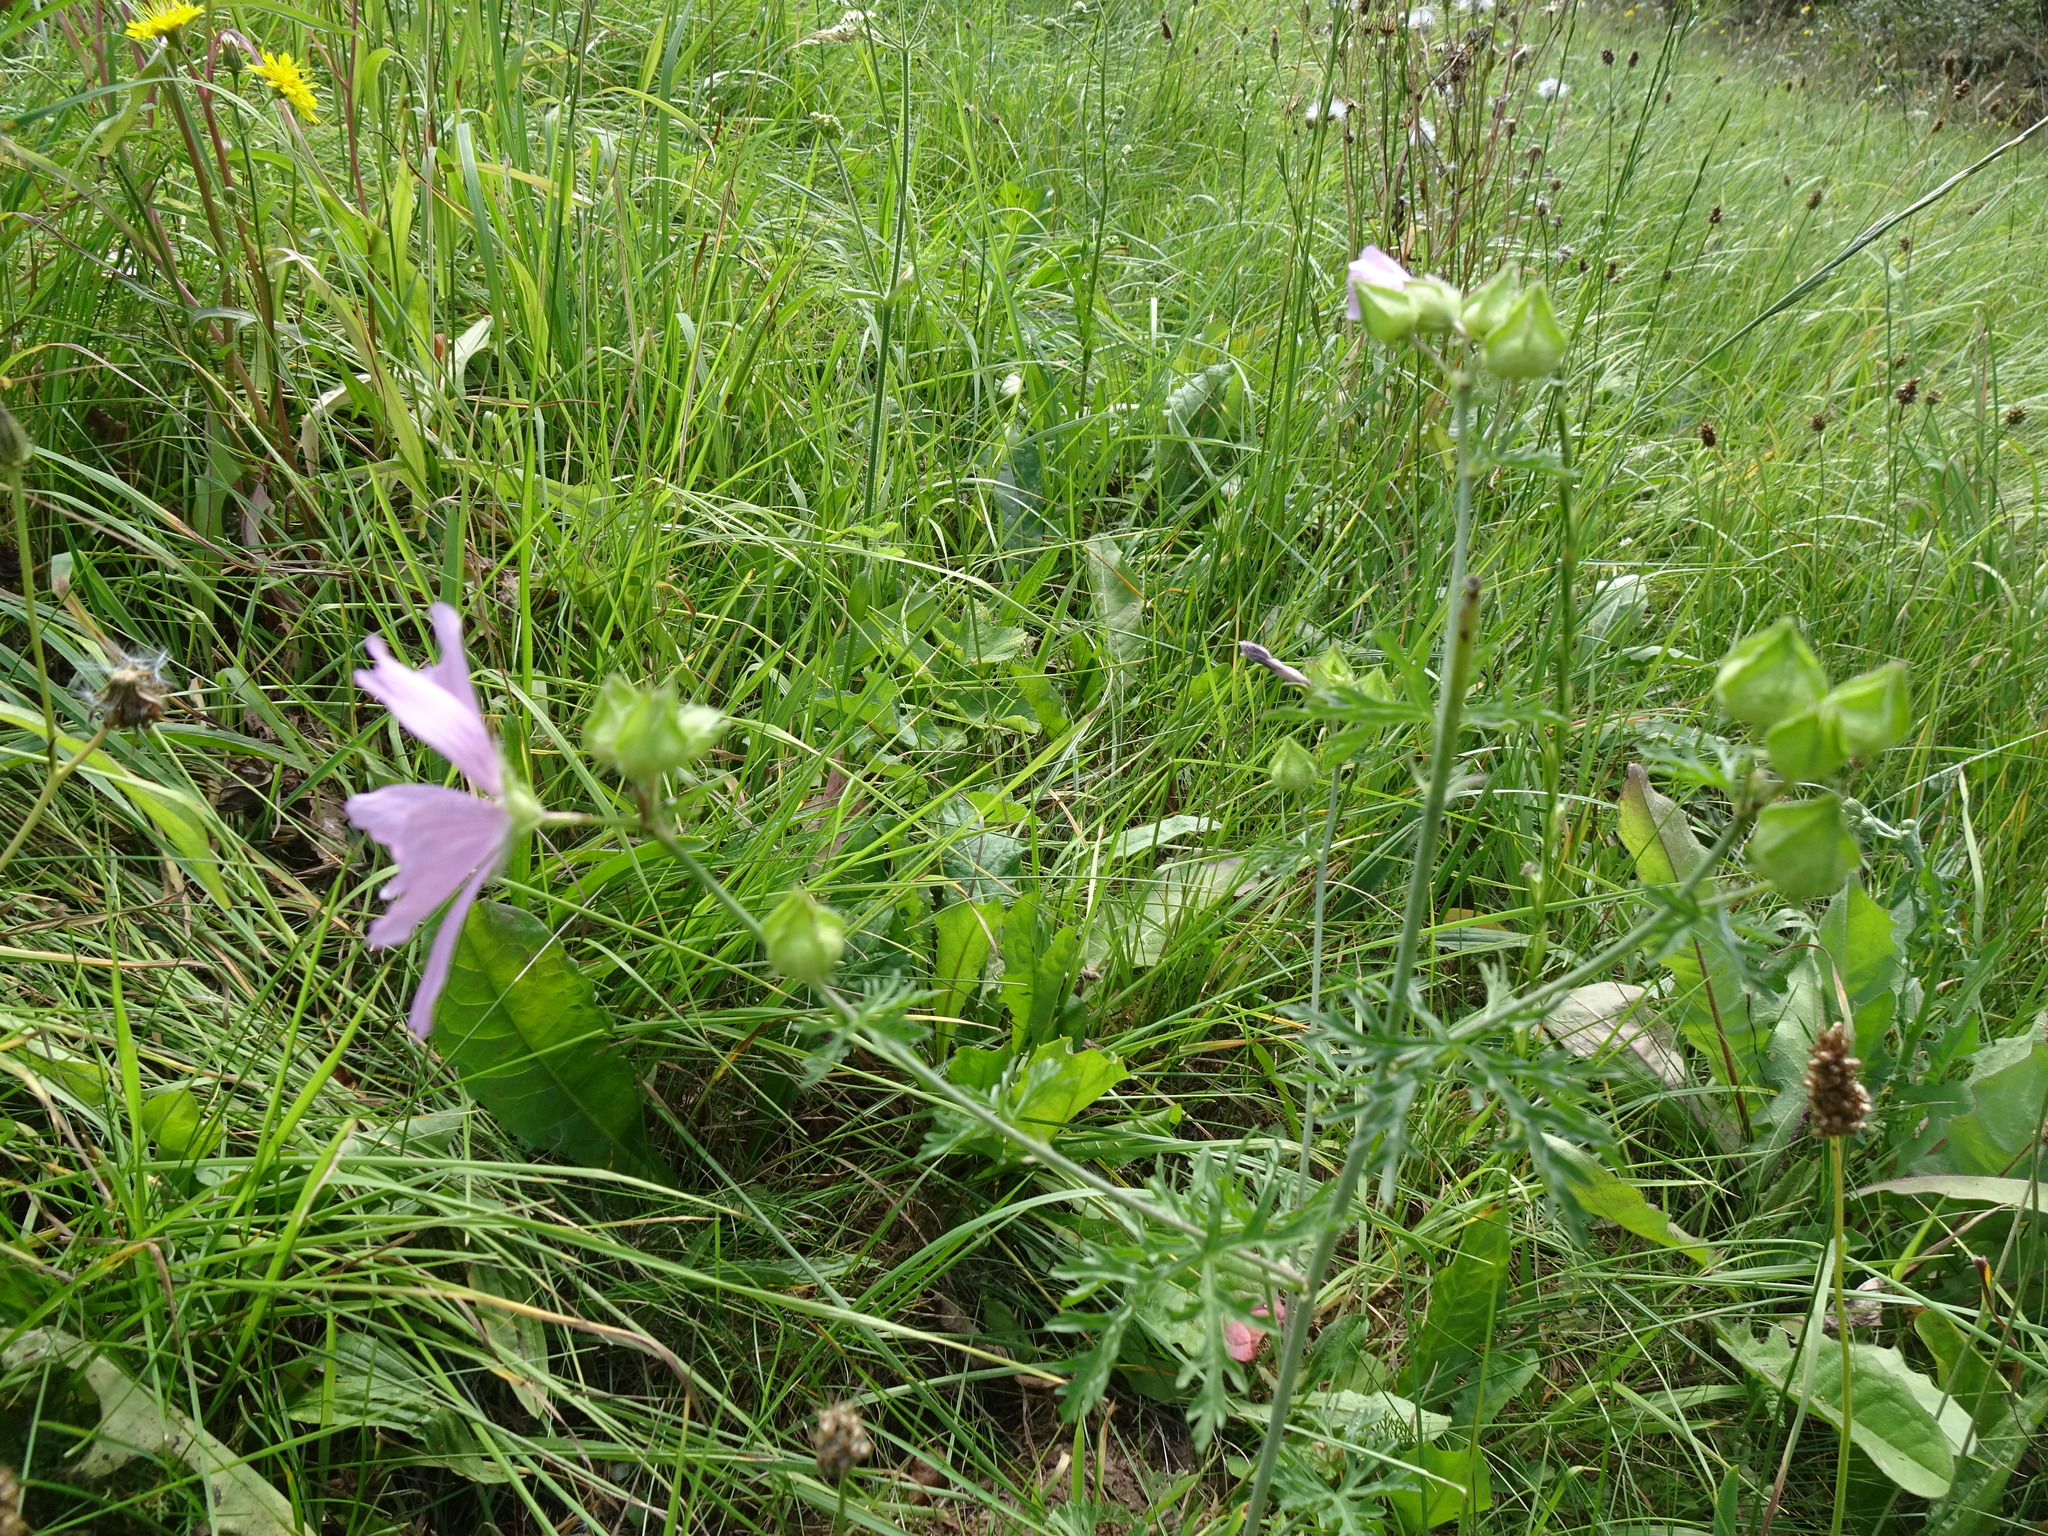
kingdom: Plantae
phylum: Tracheophyta
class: Magnoliopsida
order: Malvales
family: Malvaceae
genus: Malva
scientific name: Malva moschata
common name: Musk mallow
